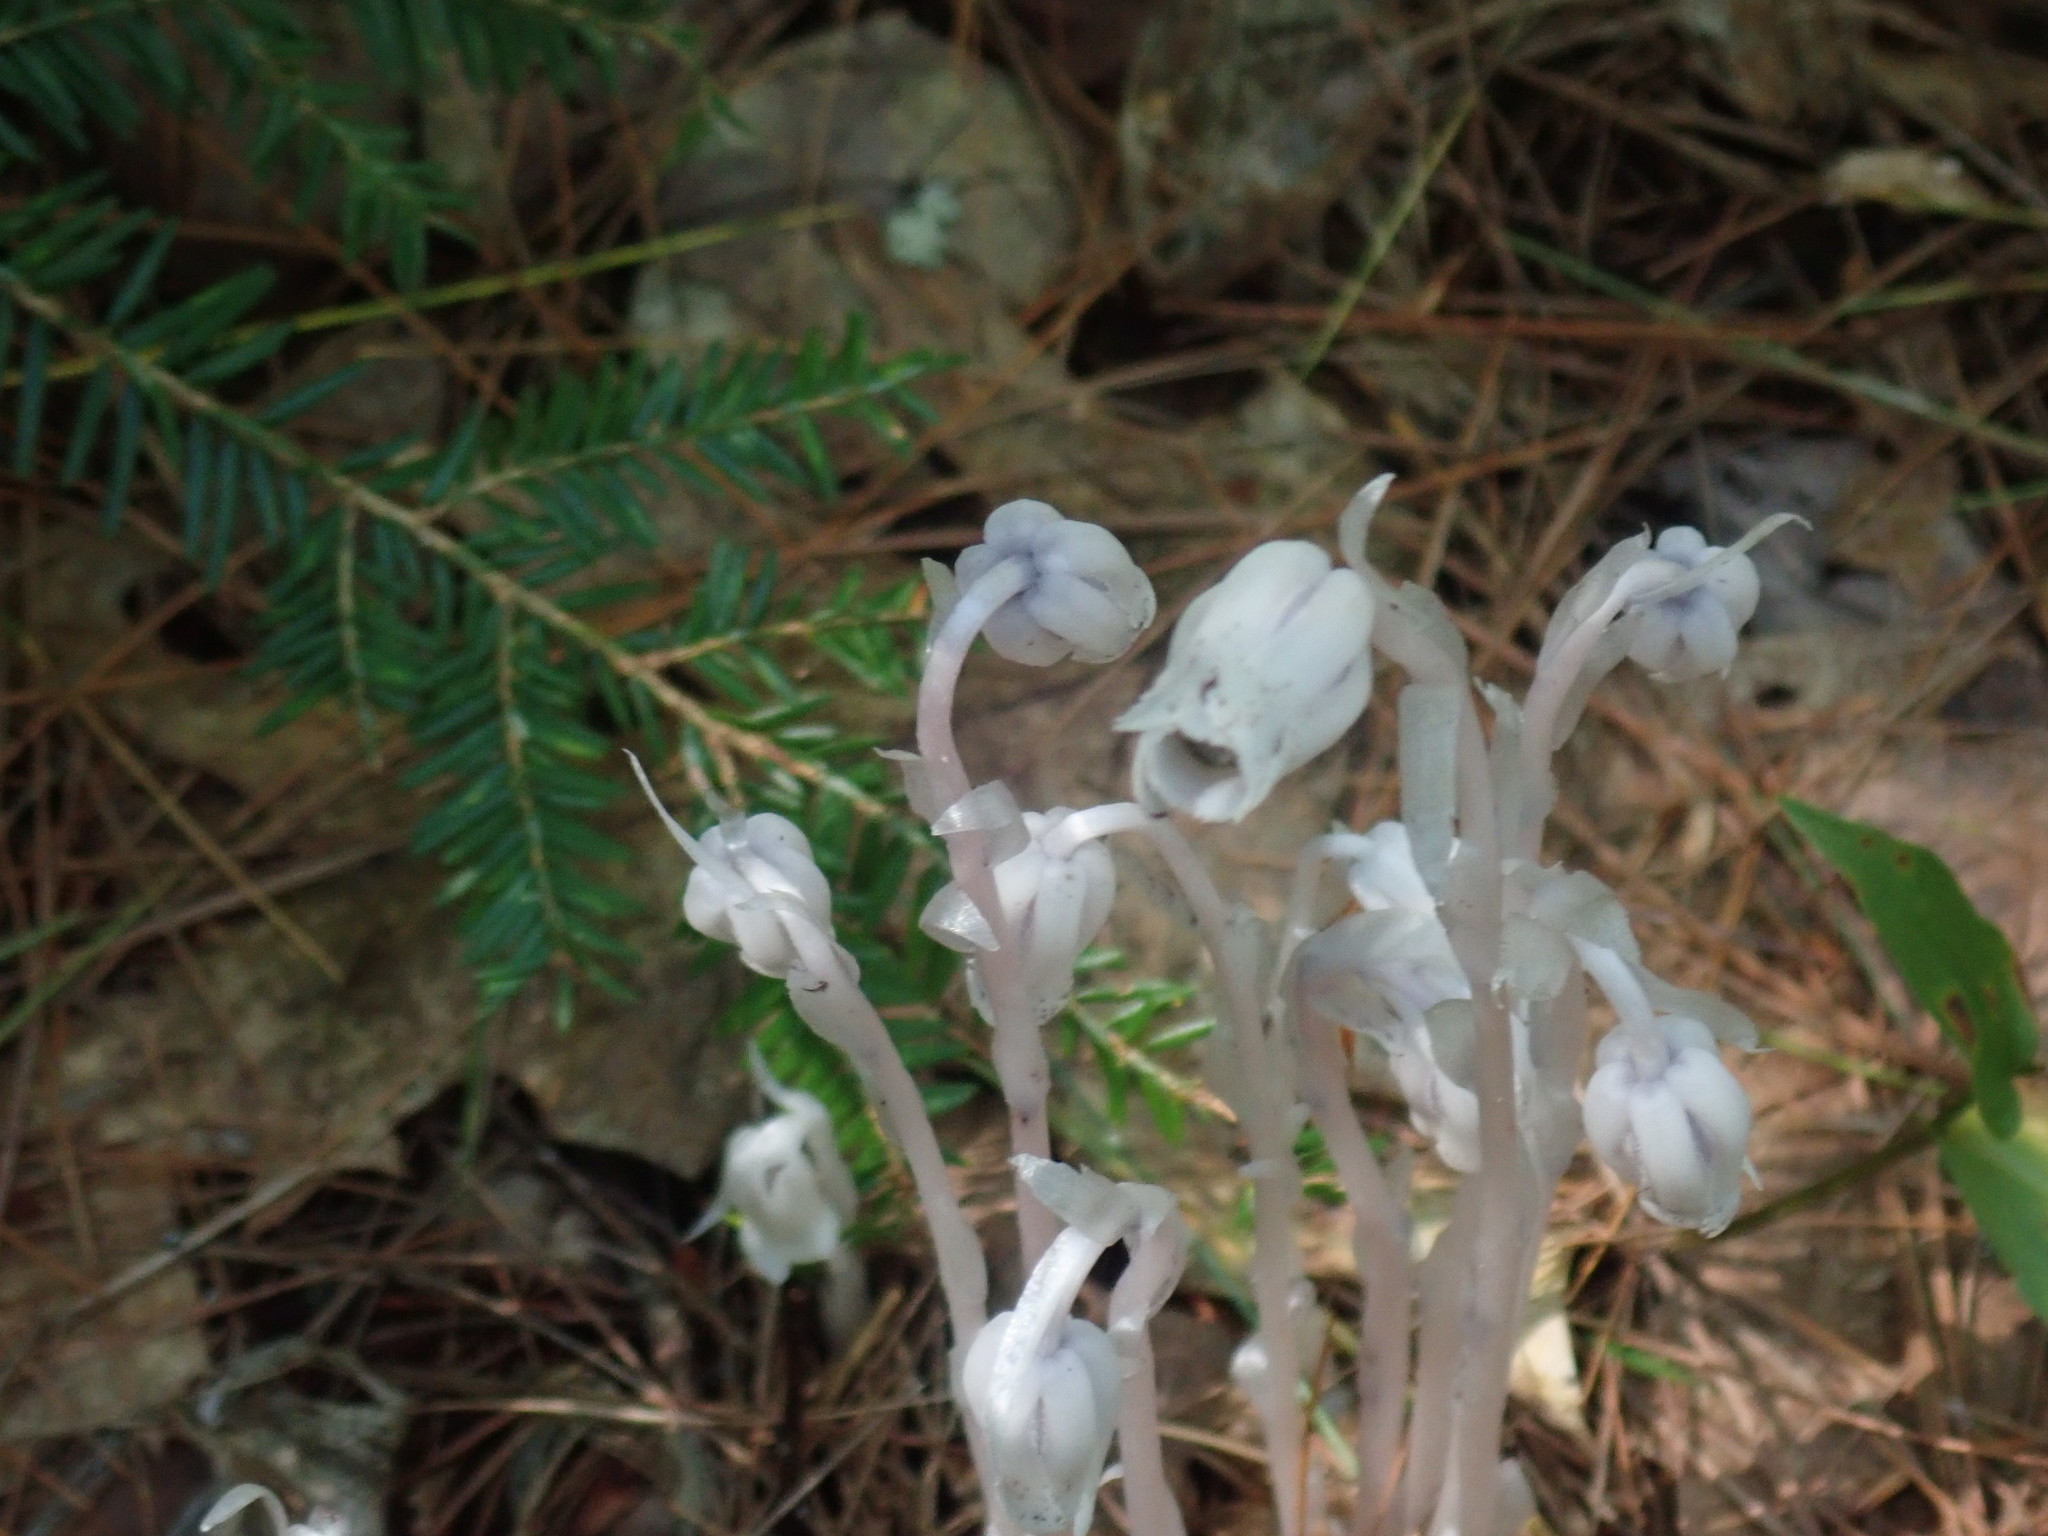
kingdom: Plantae
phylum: Tracheophyta
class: Magnoliopsida
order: Ericales
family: Ericaceae
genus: Monotropa
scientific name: Monotropa uniflora
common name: Convulsion root
